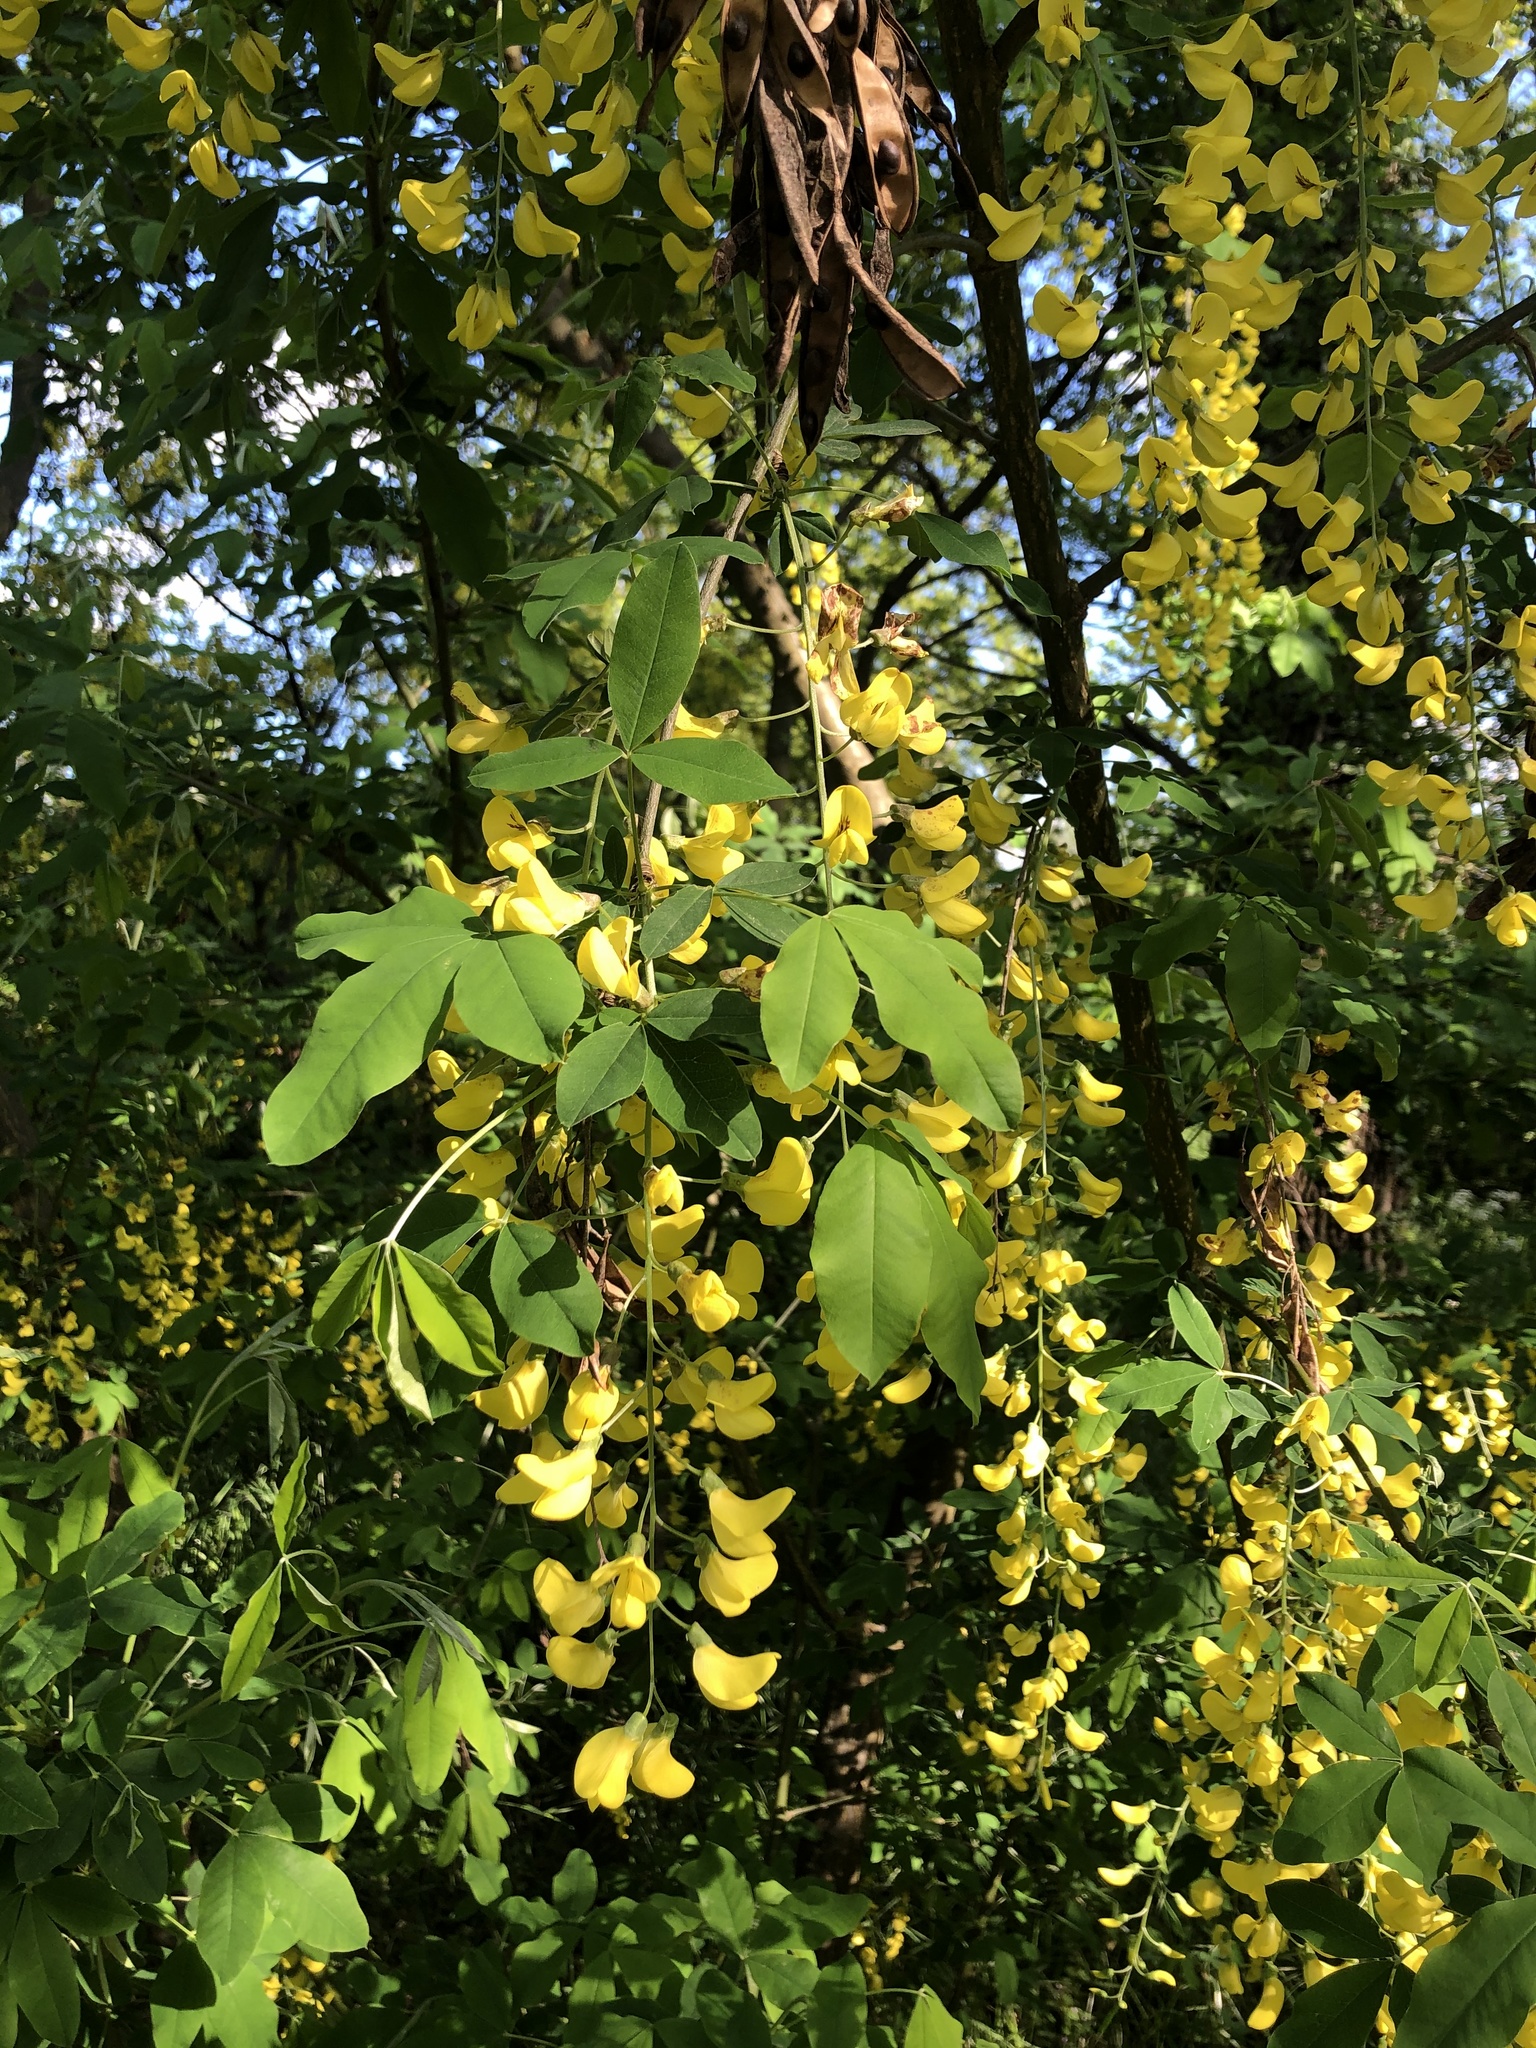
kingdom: Plantae
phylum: Tracheophyta
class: Magnoliopsida
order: Fabales
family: Fabaceae
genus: Laburnum
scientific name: Laburnum anagyroides
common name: Laburnum
